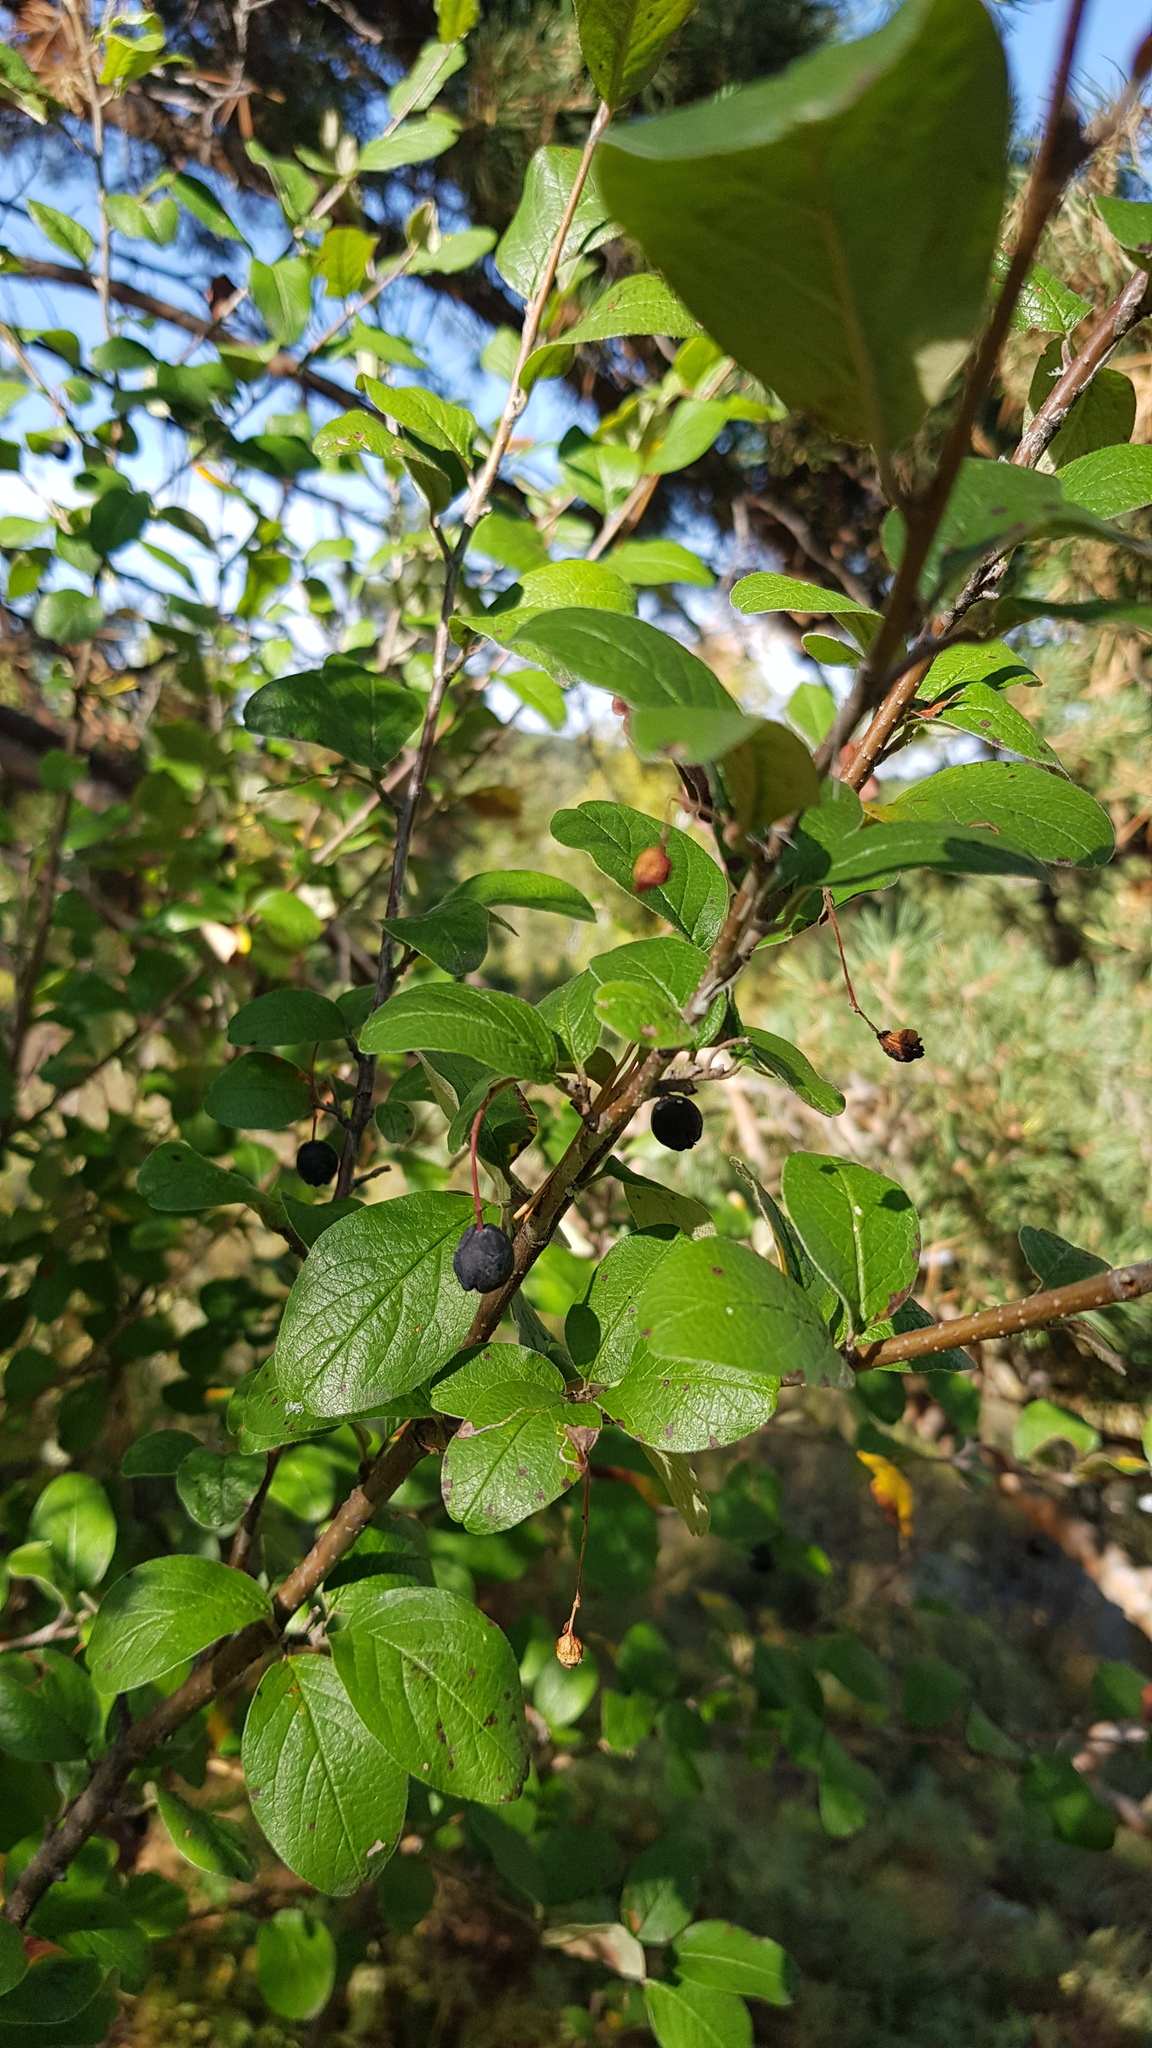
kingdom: Plantae
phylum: Tracheophyta
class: Magnoliopsida
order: Rosales
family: Rosaceae
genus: Cotoneaster
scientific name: Cotoneaster melanocarpus
